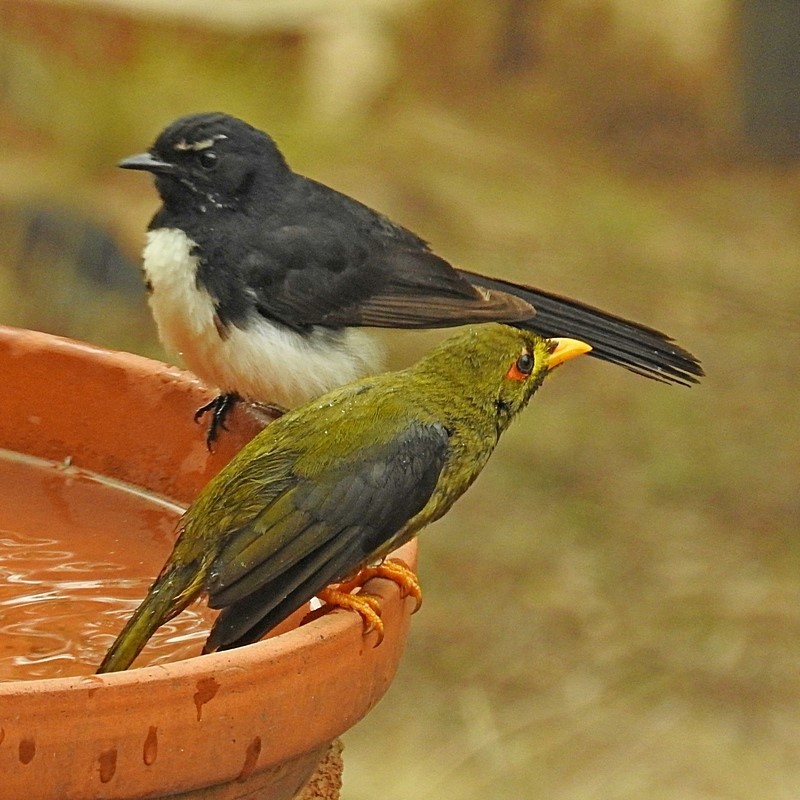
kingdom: Animalia
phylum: Chordata
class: Aves
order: Passeriformes
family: Meliphagidae
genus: Manorina
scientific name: Manorina melanophrys
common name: Bell miner
